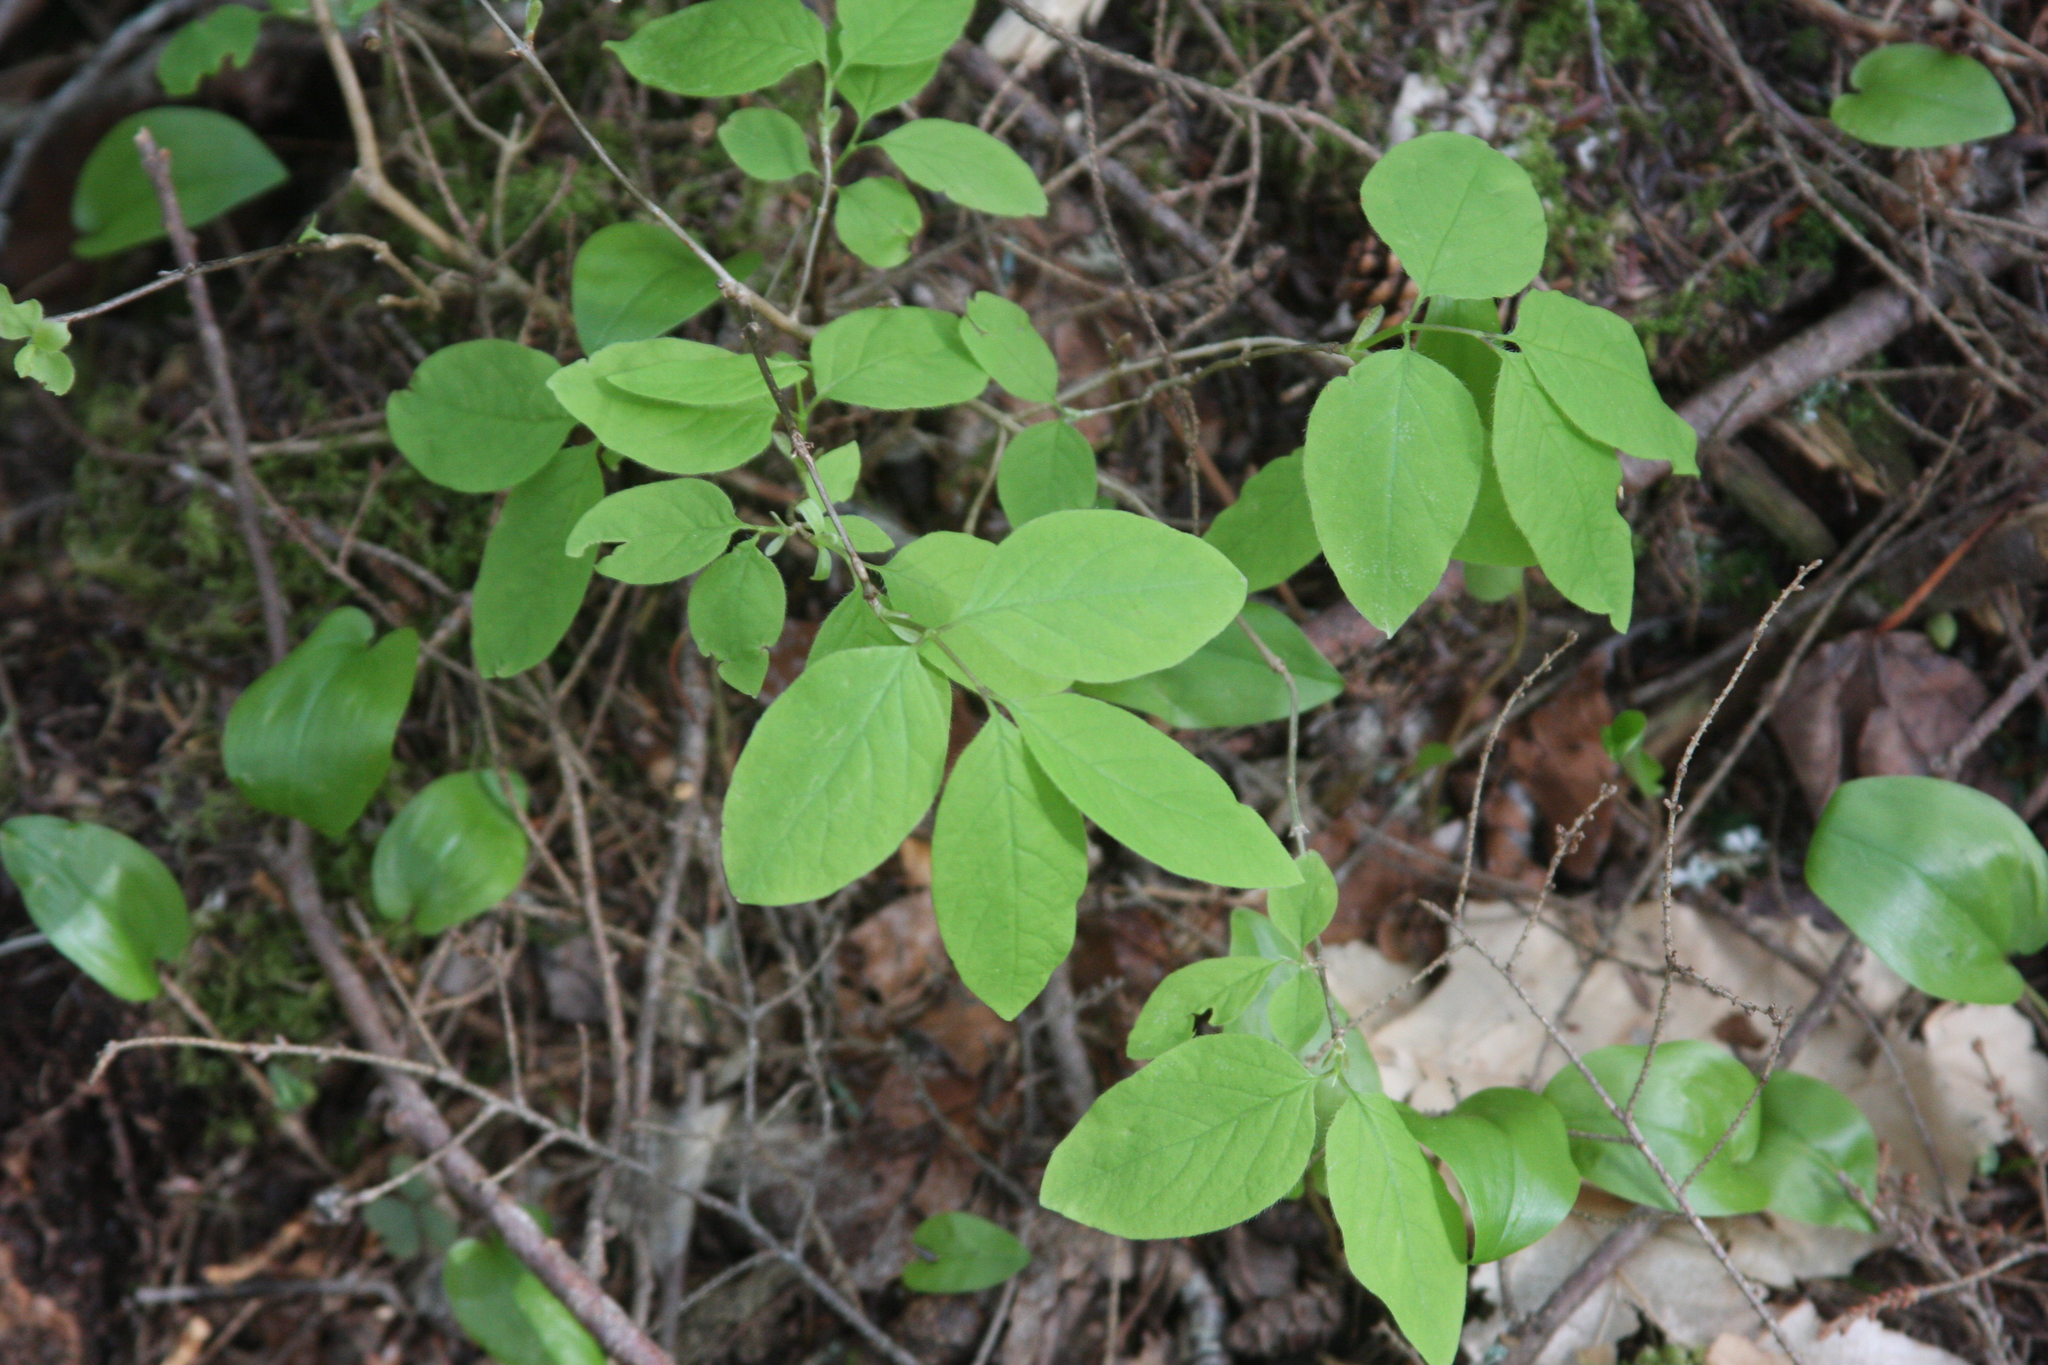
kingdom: Plantae
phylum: Tracheophyta
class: Magnoliopsida
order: Dipsacales
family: Caprifoliaceae
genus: Lonicera
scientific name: Lonicera canadensis
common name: American fly-honeysuckle
